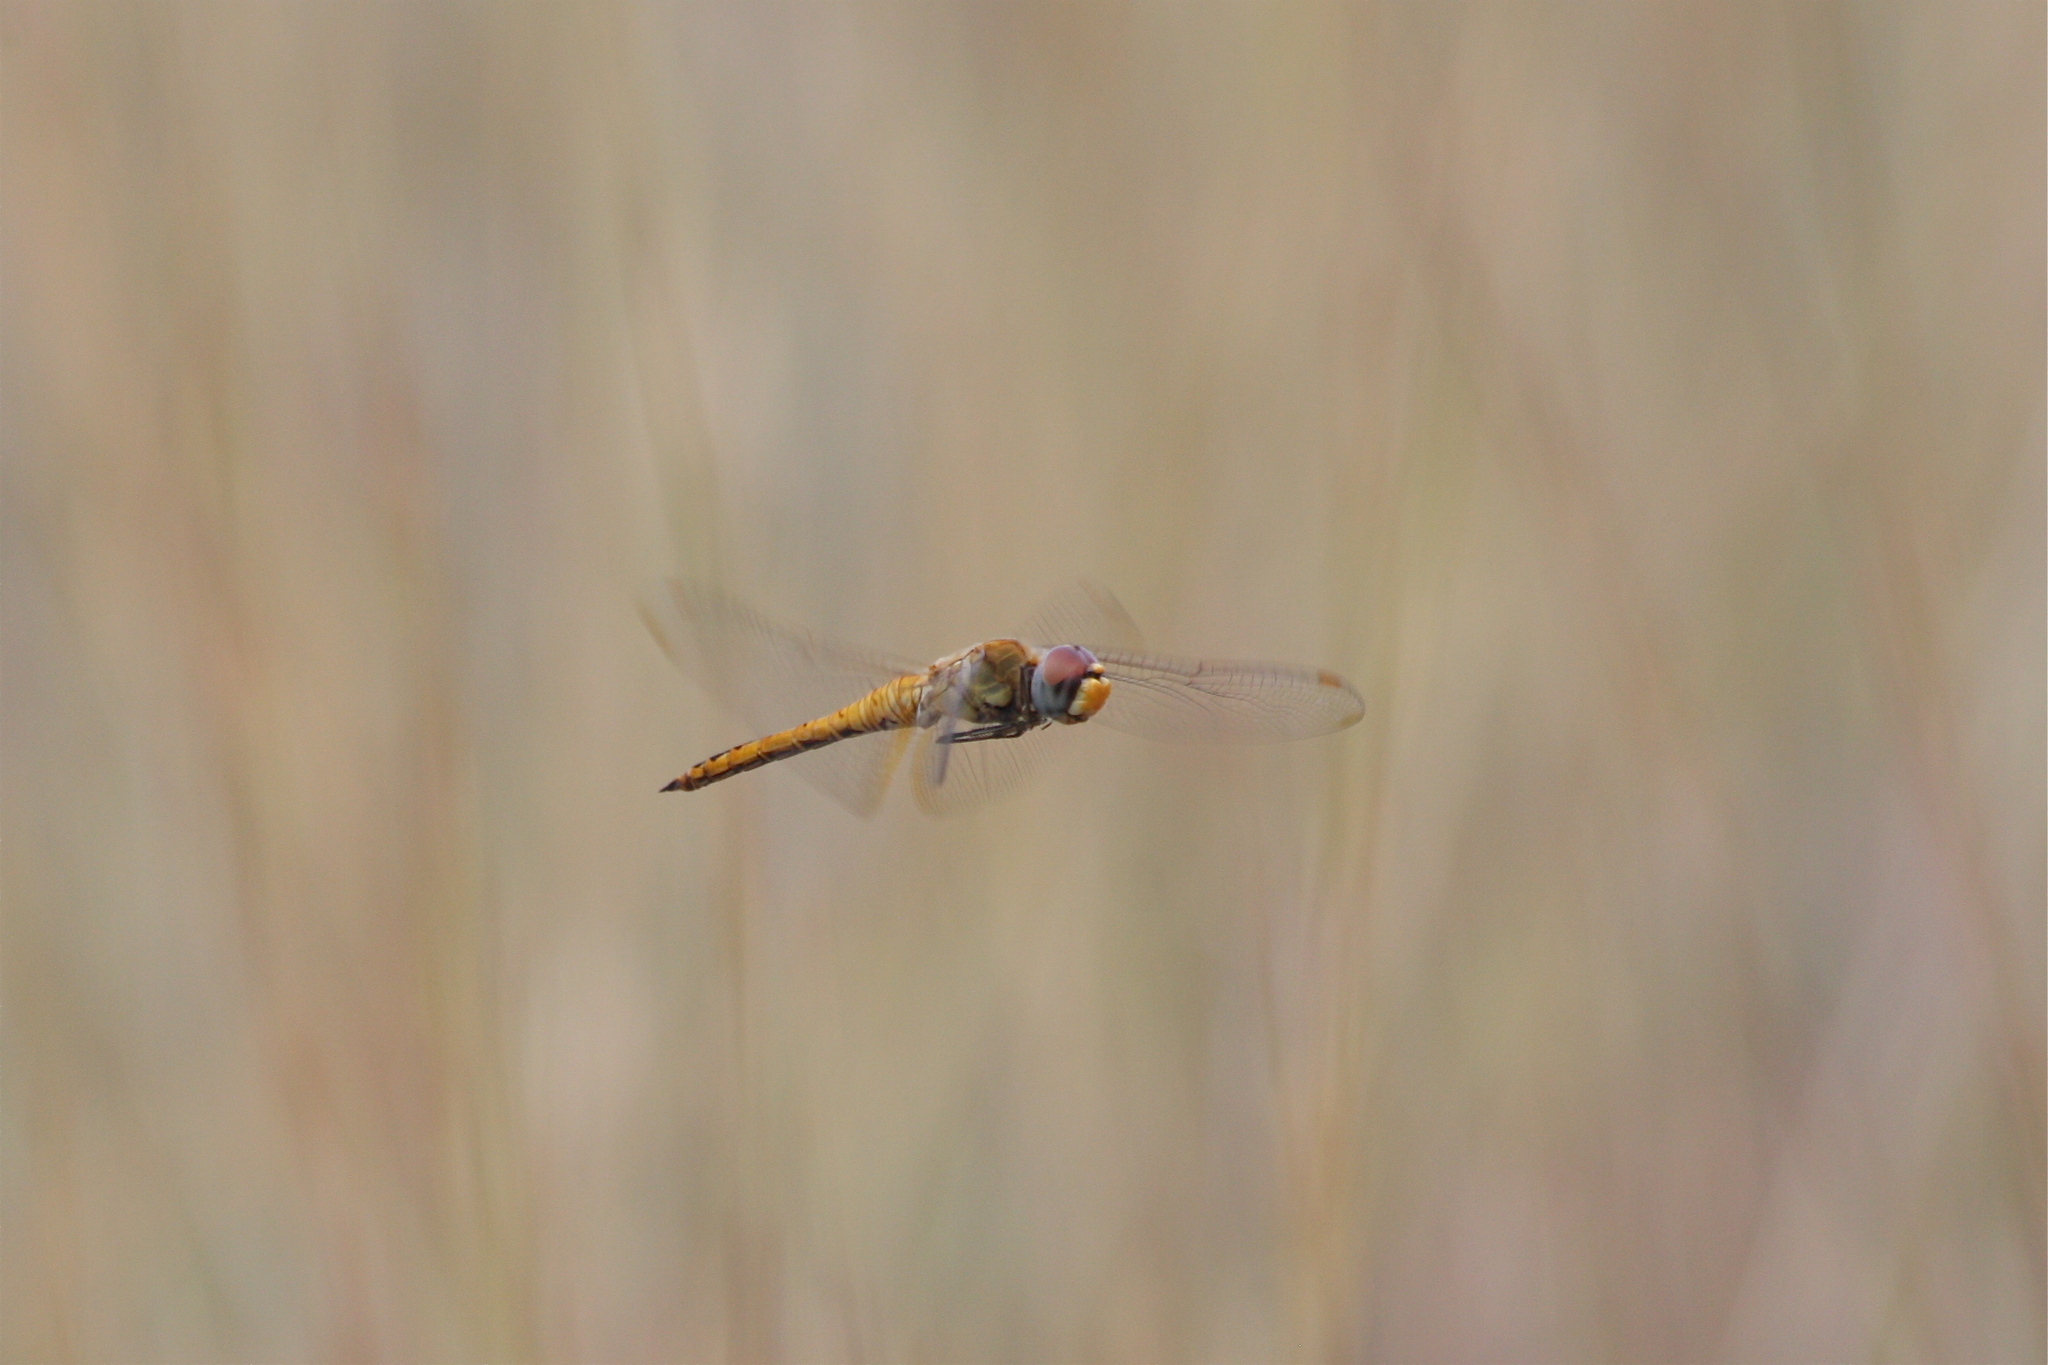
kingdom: Animalia
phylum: Arthropoda
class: Insecta
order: Odonata
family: Libellulidae
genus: Pantala
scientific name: Pantala flavescens
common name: Wandering glider
